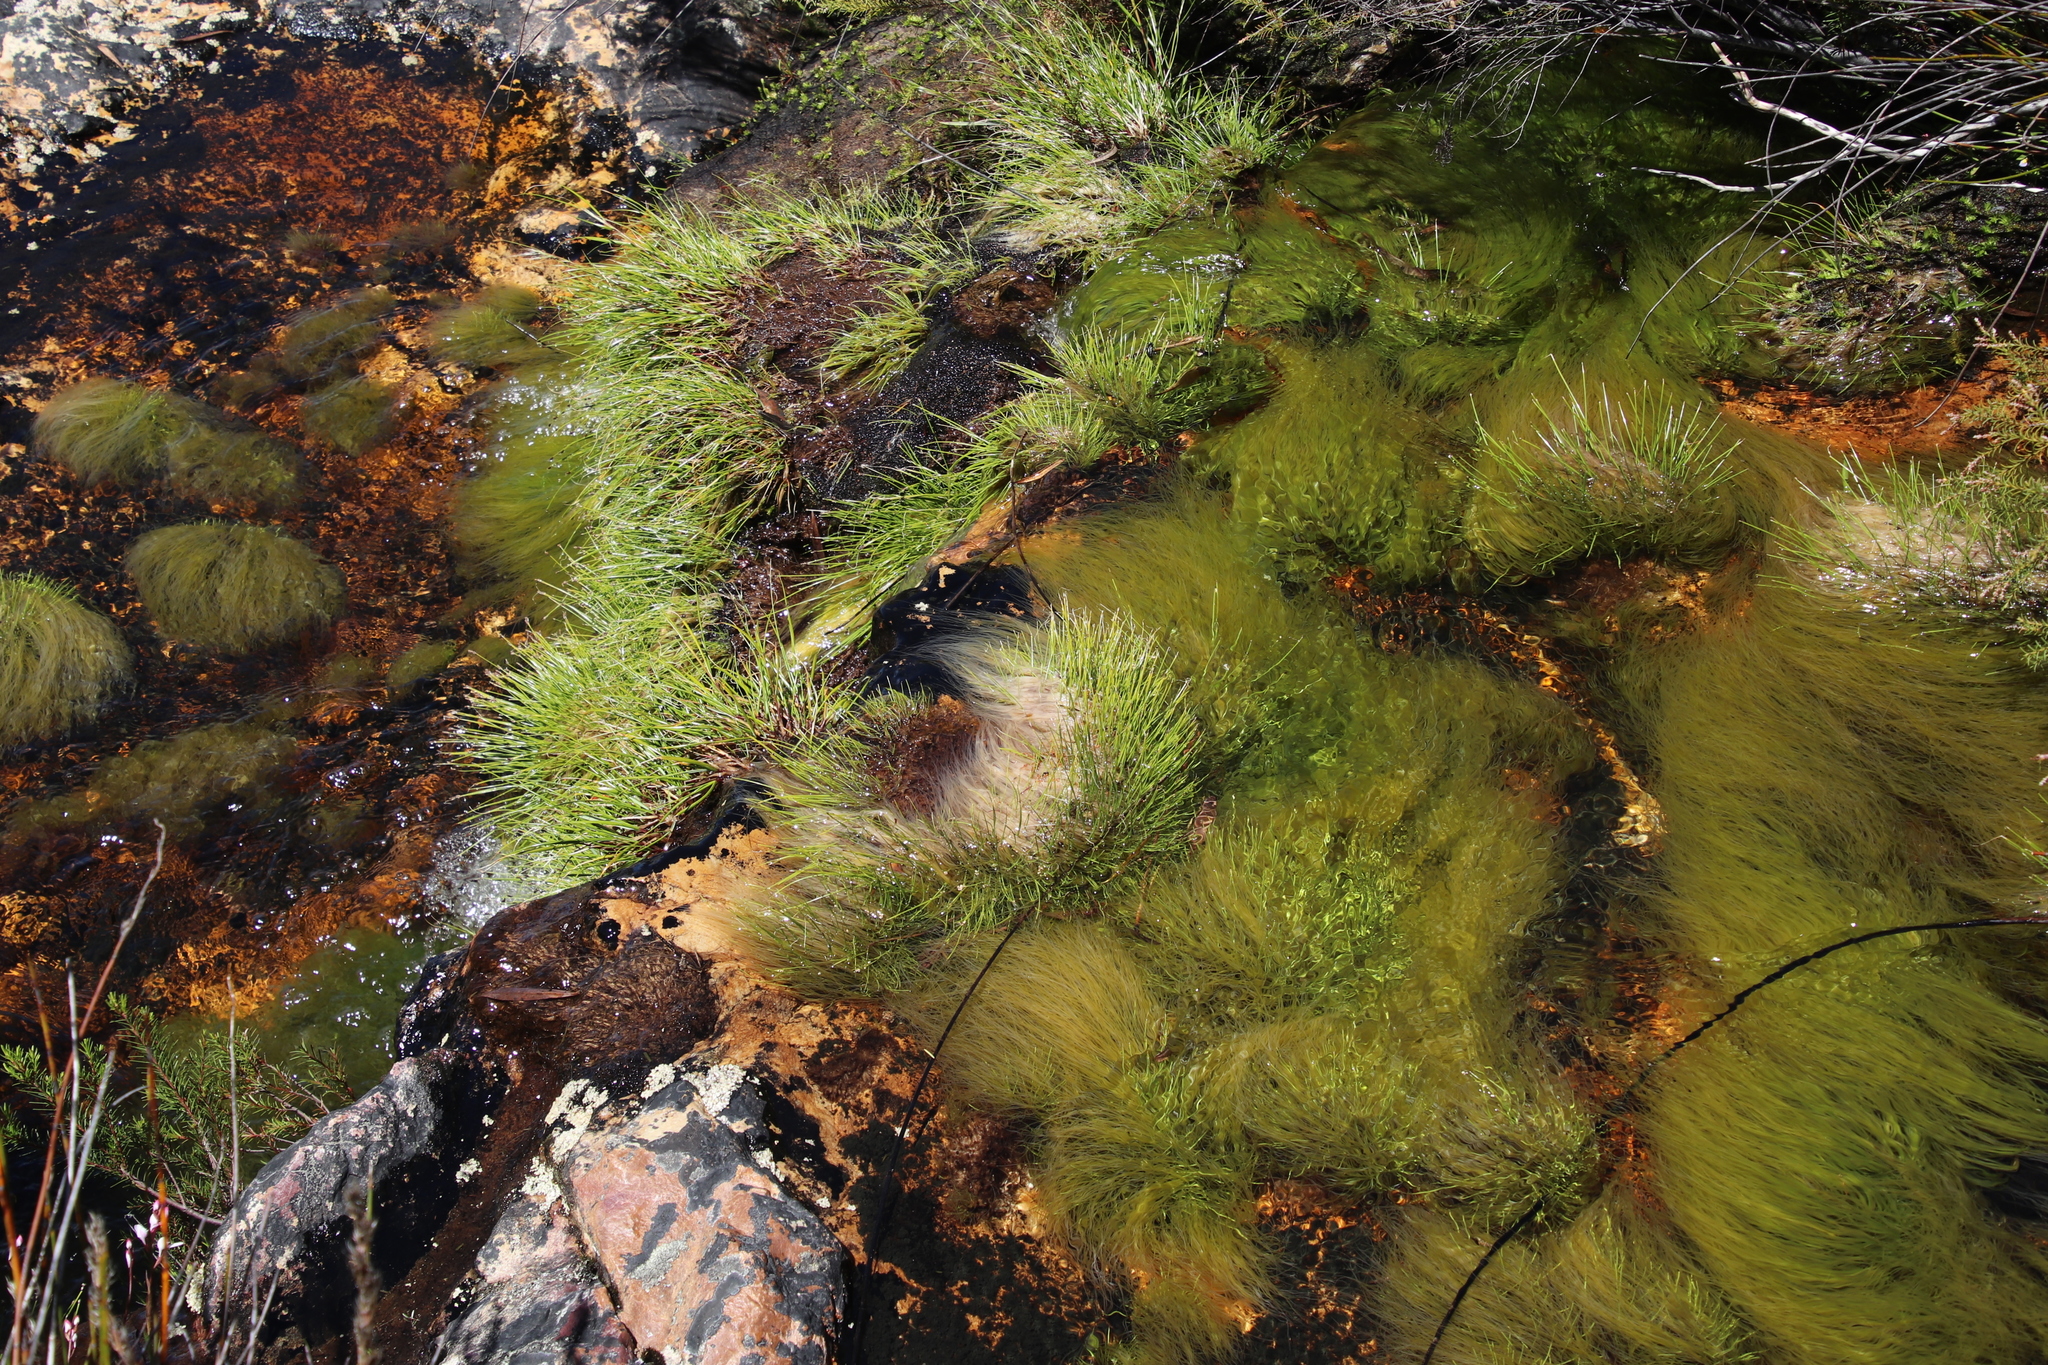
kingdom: Plantae
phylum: Tracheophyta
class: Liliopsida
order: Poales
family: Cyperaceae
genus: Isolepis
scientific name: Isolepis digitata
